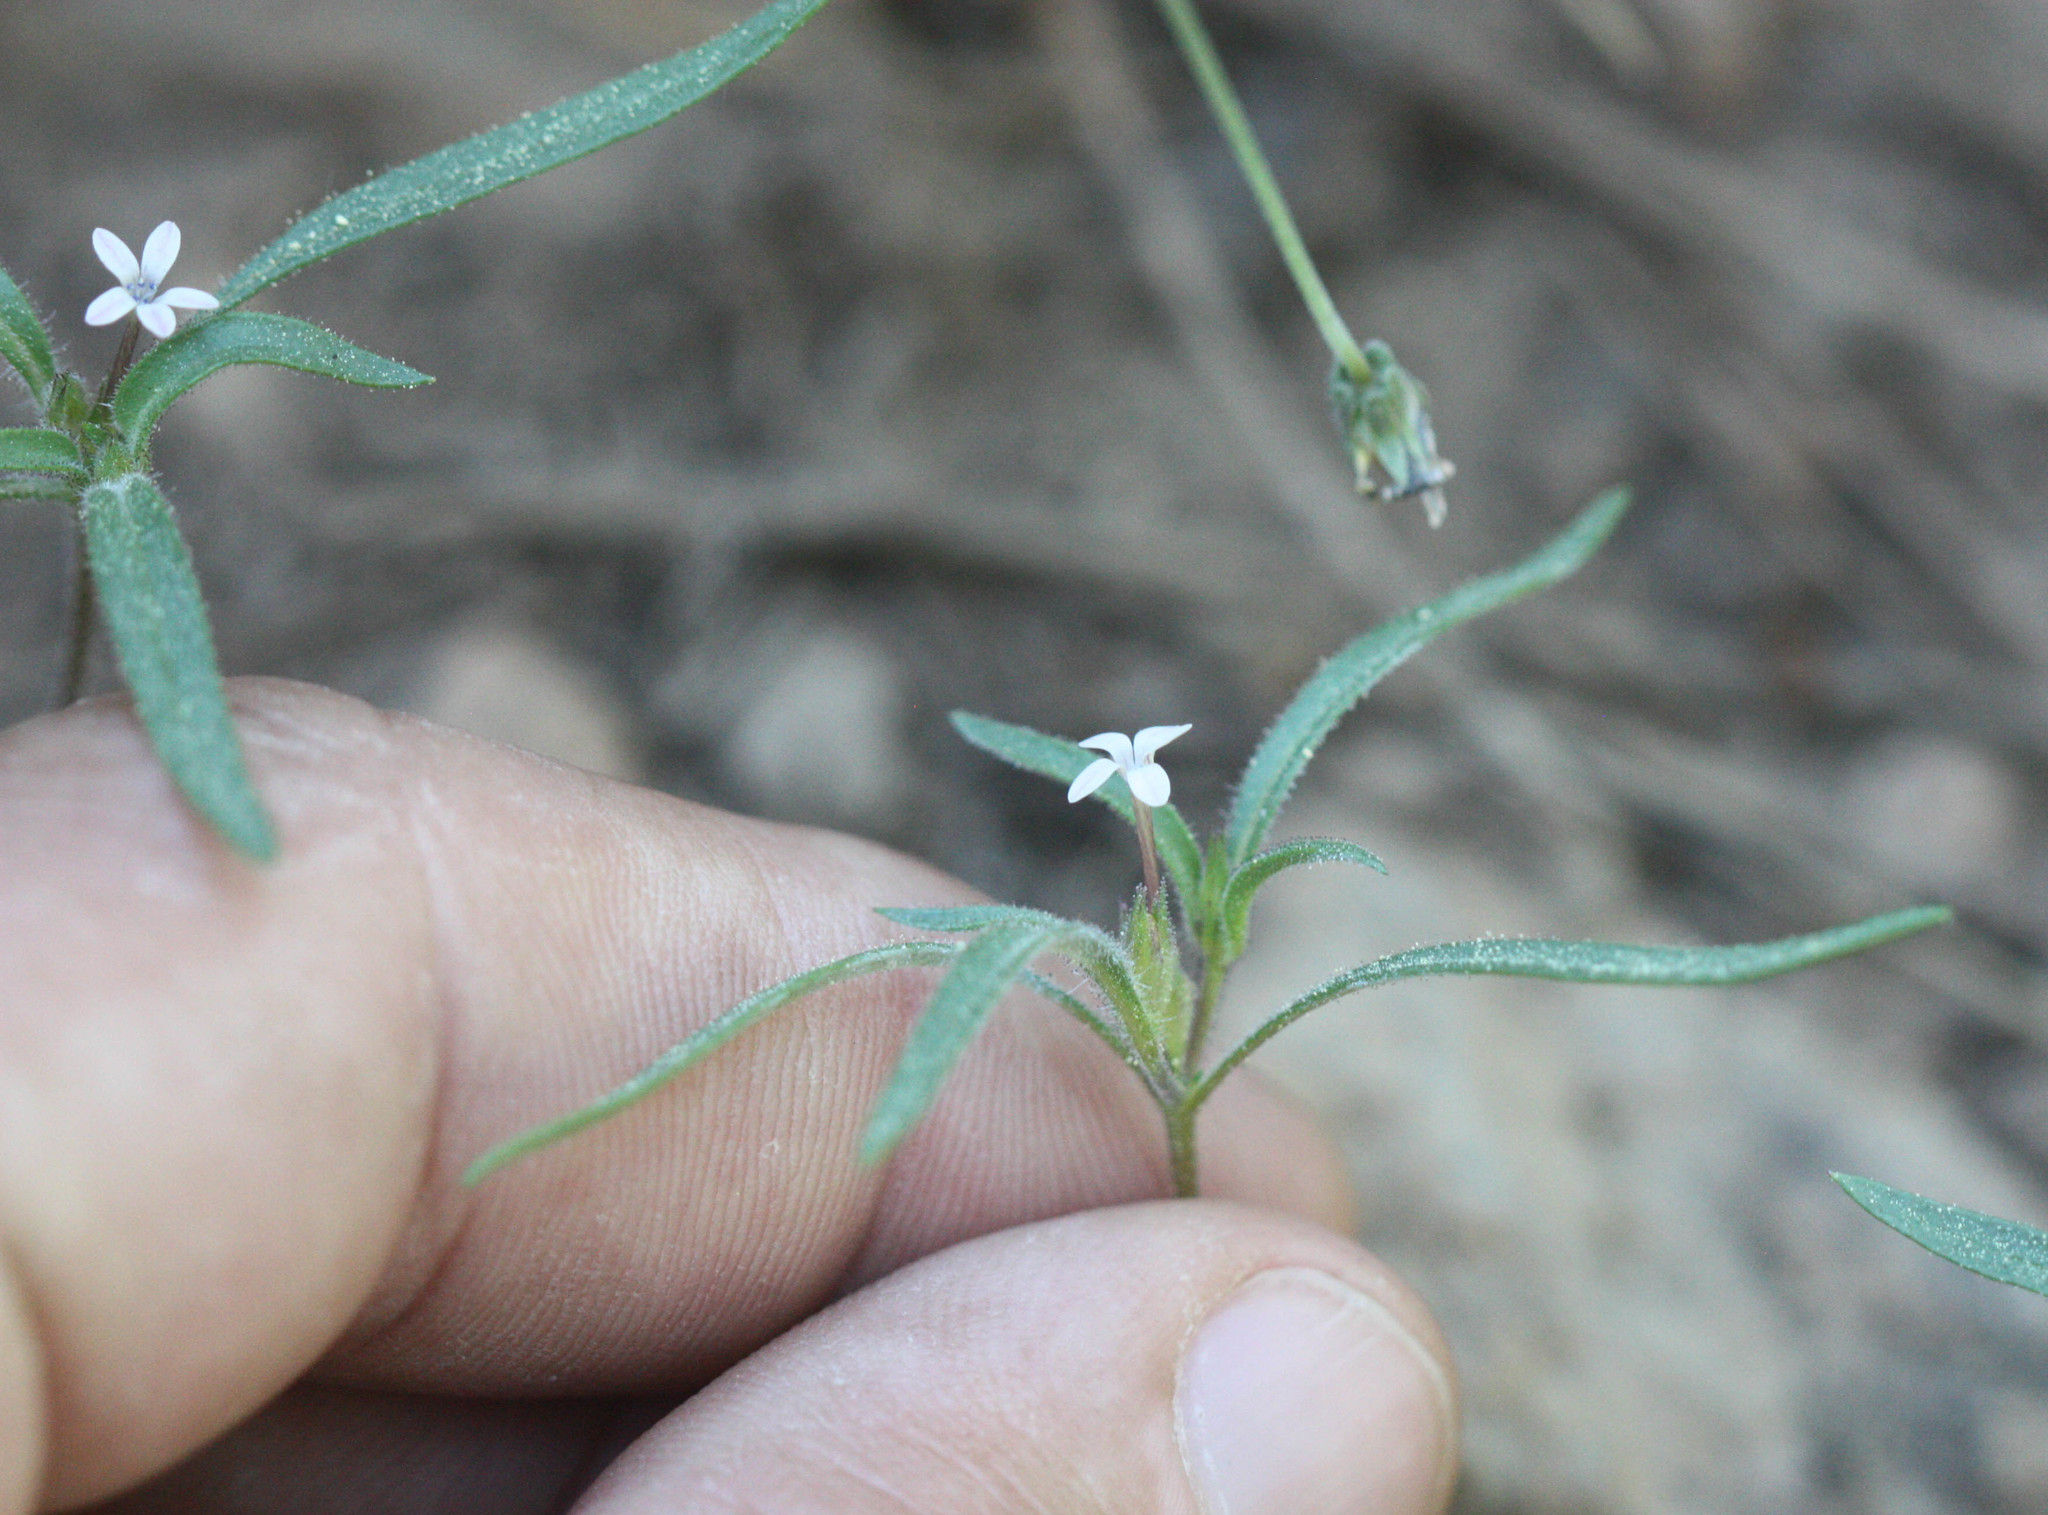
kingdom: Plantae
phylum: Tracheophyta
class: Magnoliopsida
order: Ericales
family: Polemoniaceae
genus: Collomia
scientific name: Collomia tinctoria
